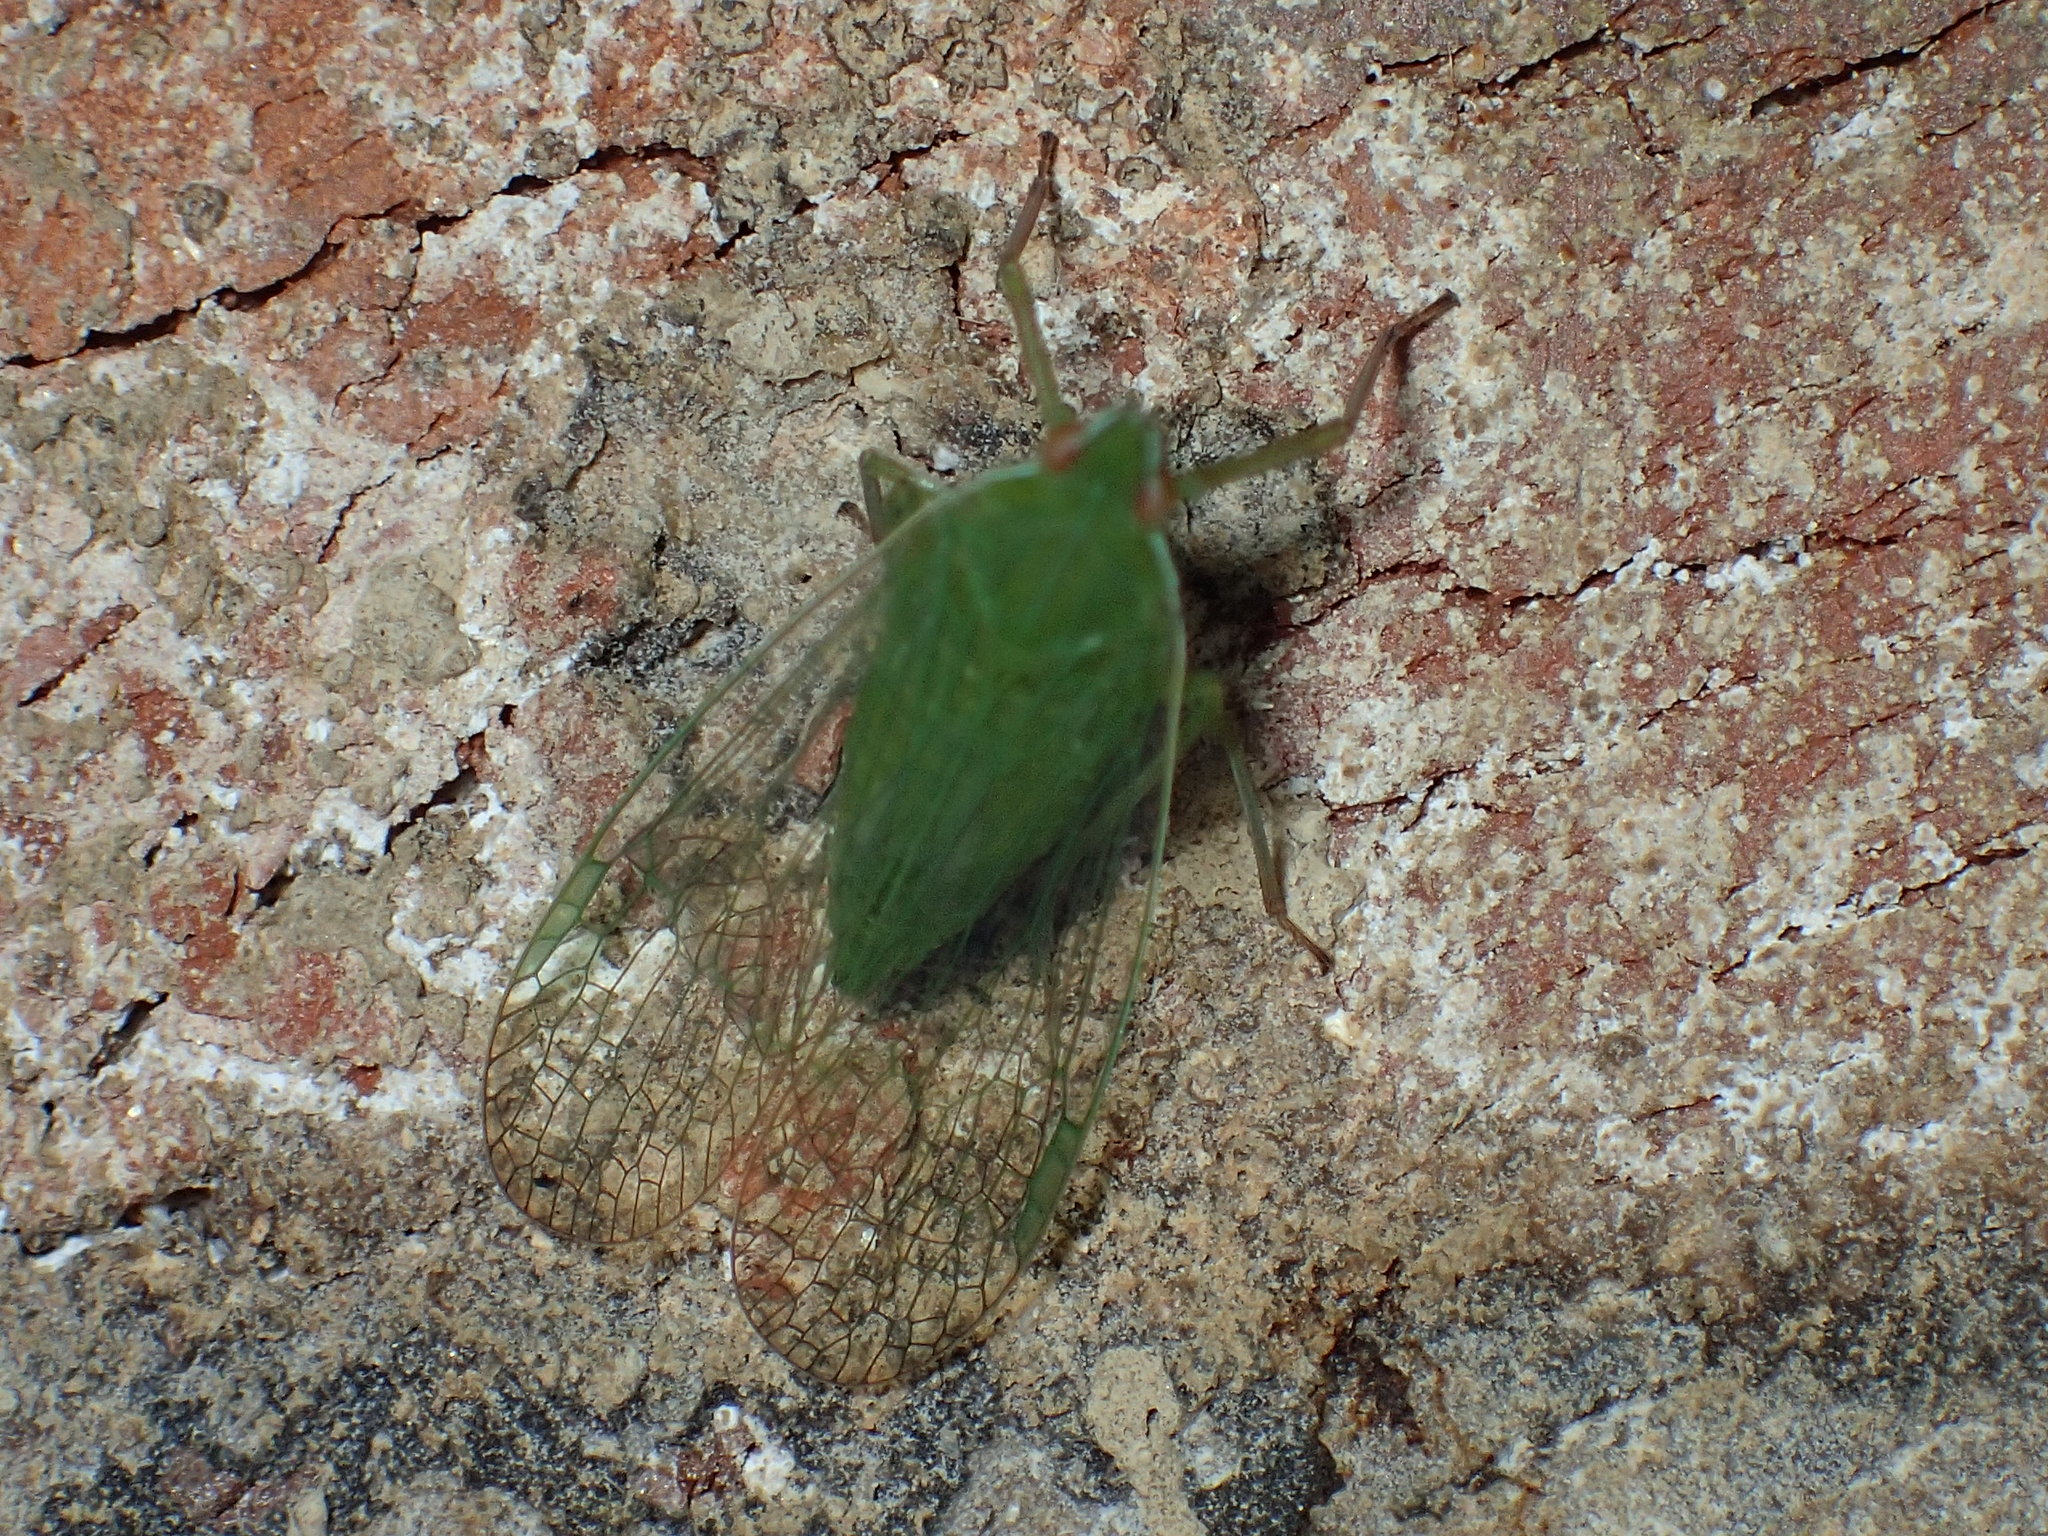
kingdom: Animalia
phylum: Arthropoda
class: Insecta
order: Hemiptera
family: Dictyopharidae
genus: Nersia
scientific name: Nersia florida
